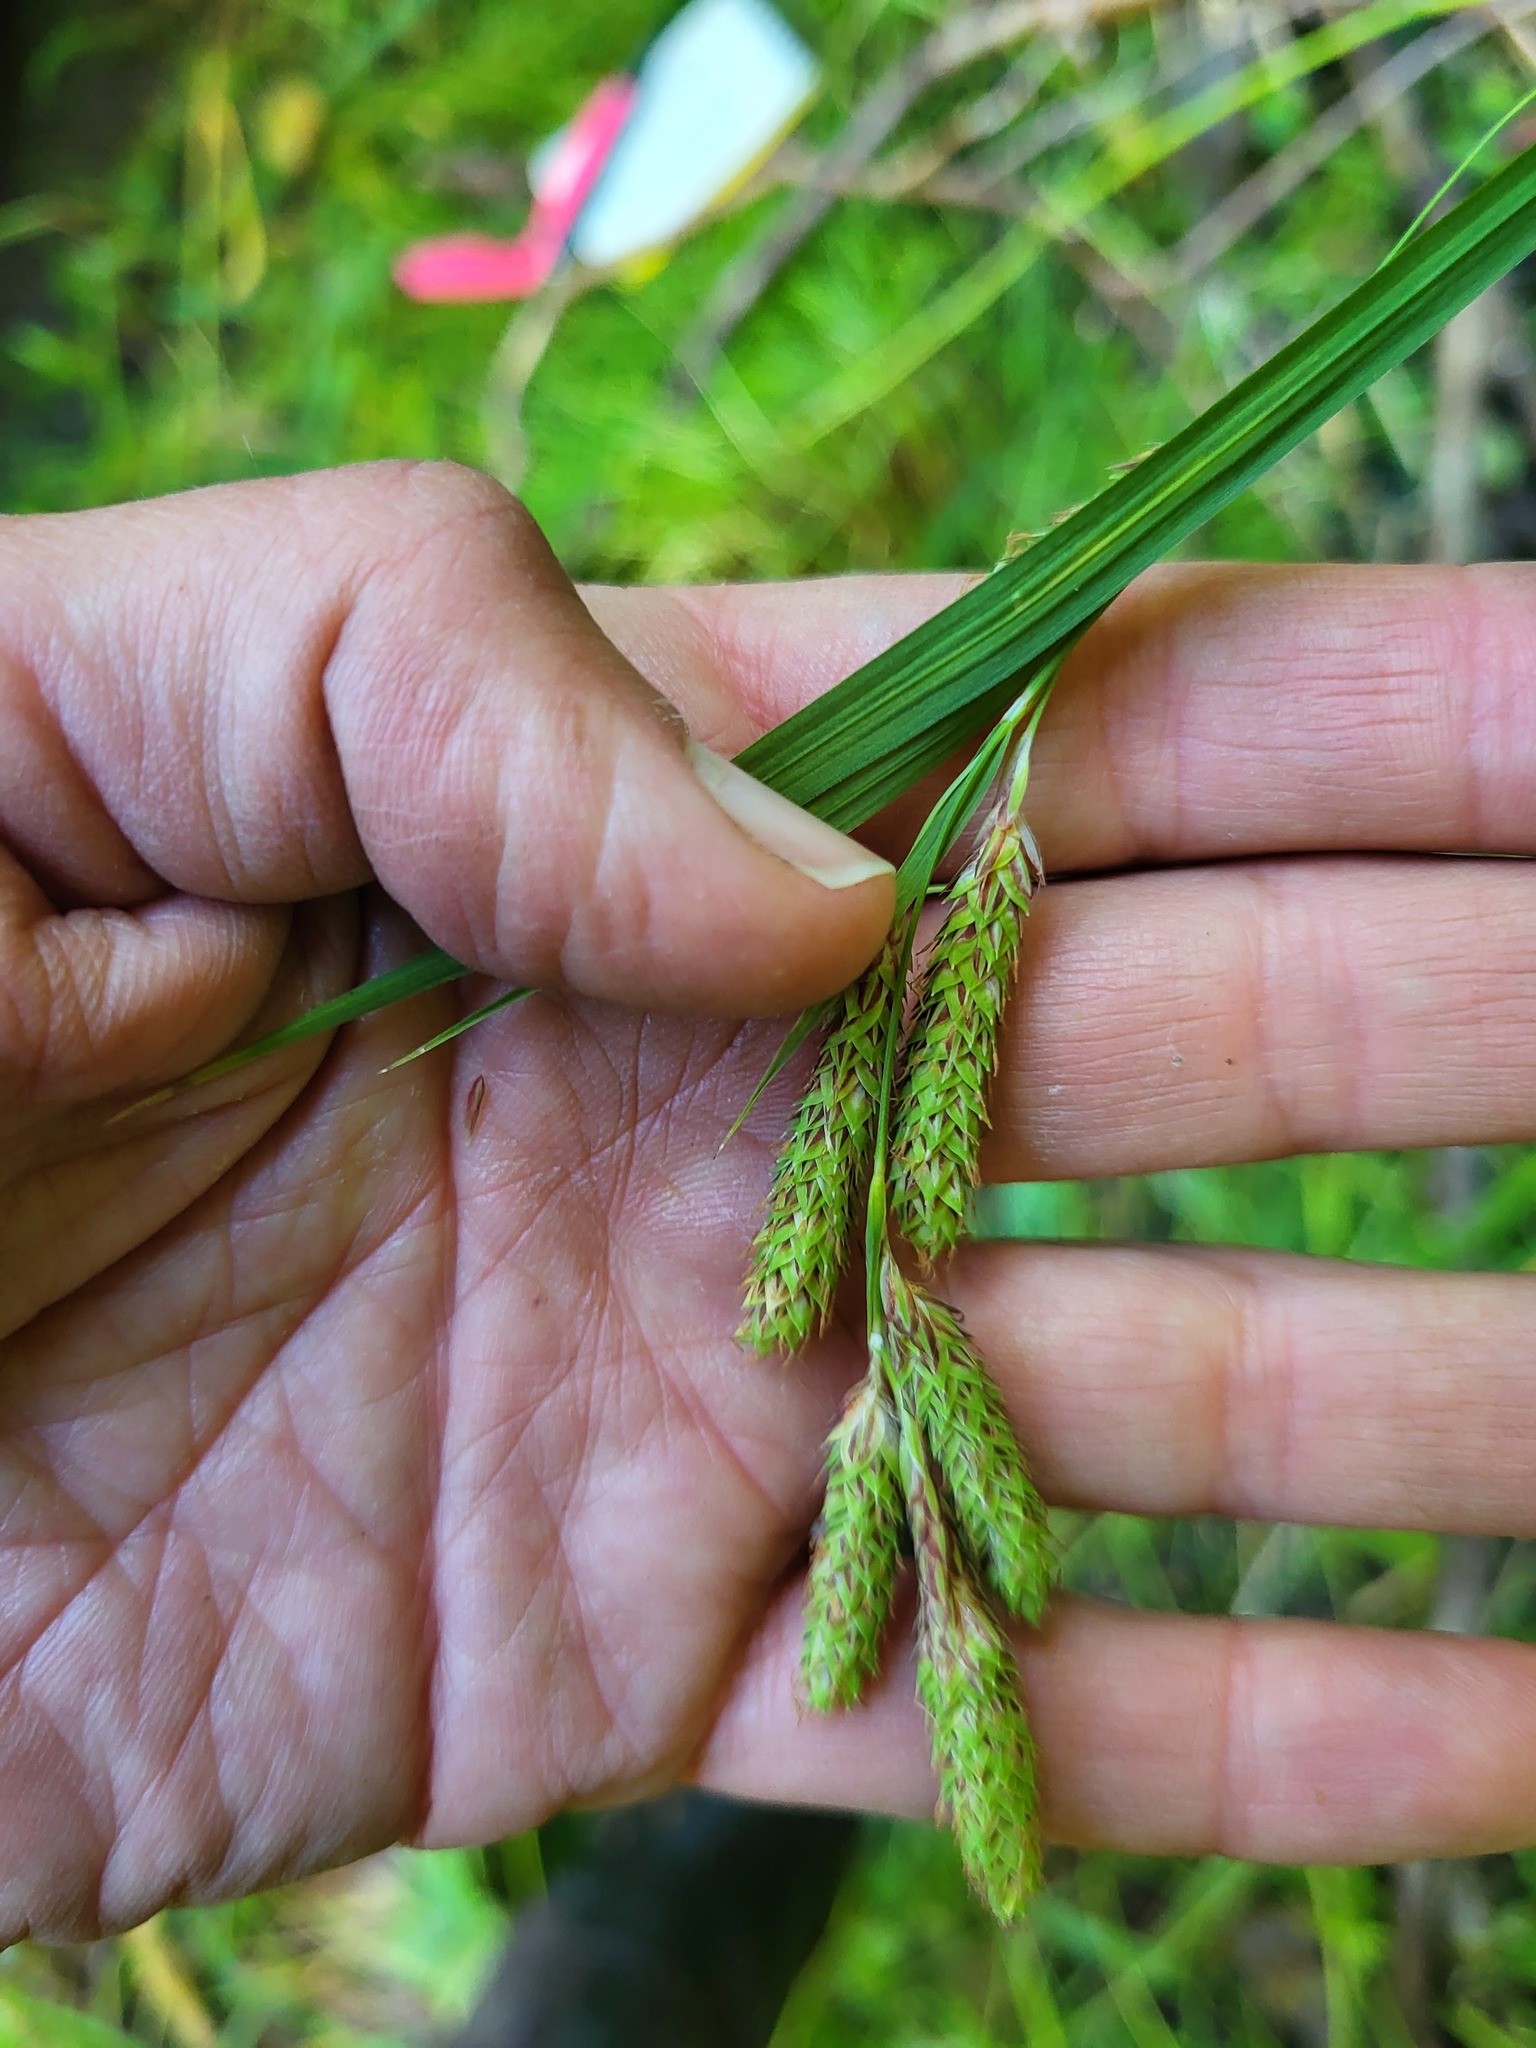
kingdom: Plantae
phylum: Tracheophyta
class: Liliopsida
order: Poales
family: Cyperaceae
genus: Carex
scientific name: Carex mertensii
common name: Mertens' sedge
